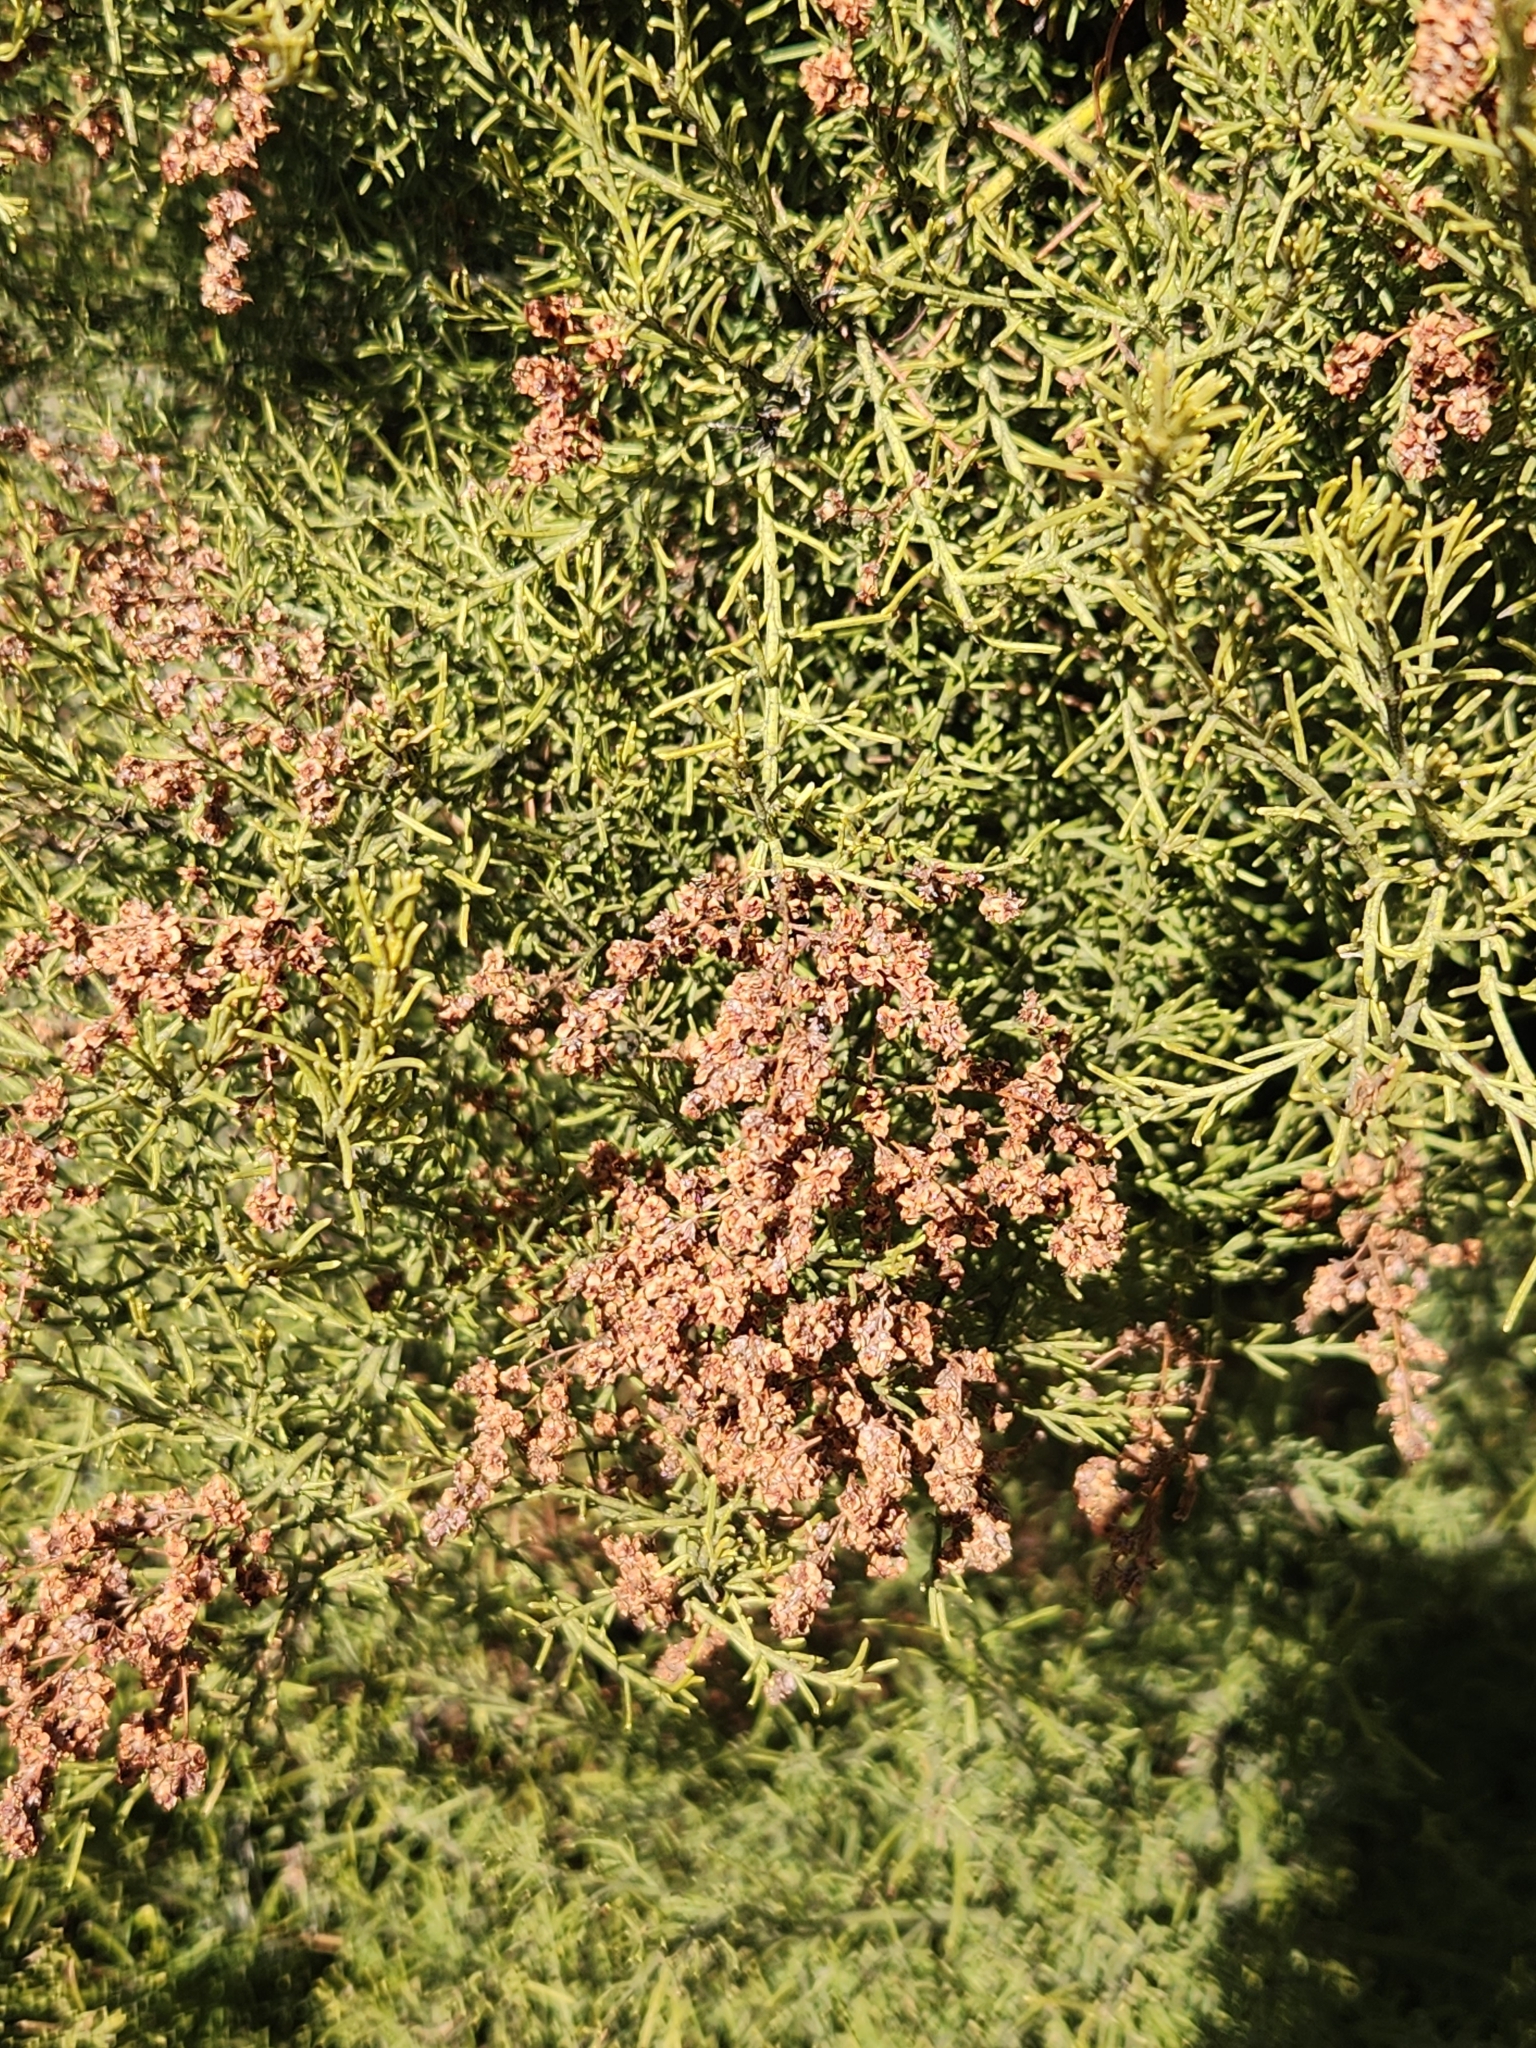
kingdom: Plantae
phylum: Tracheophyta
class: Magnoliopsida
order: Rosales
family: Rosaceae
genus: Adenostoma
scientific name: Adenostoma sparsifolium
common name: Red shank
